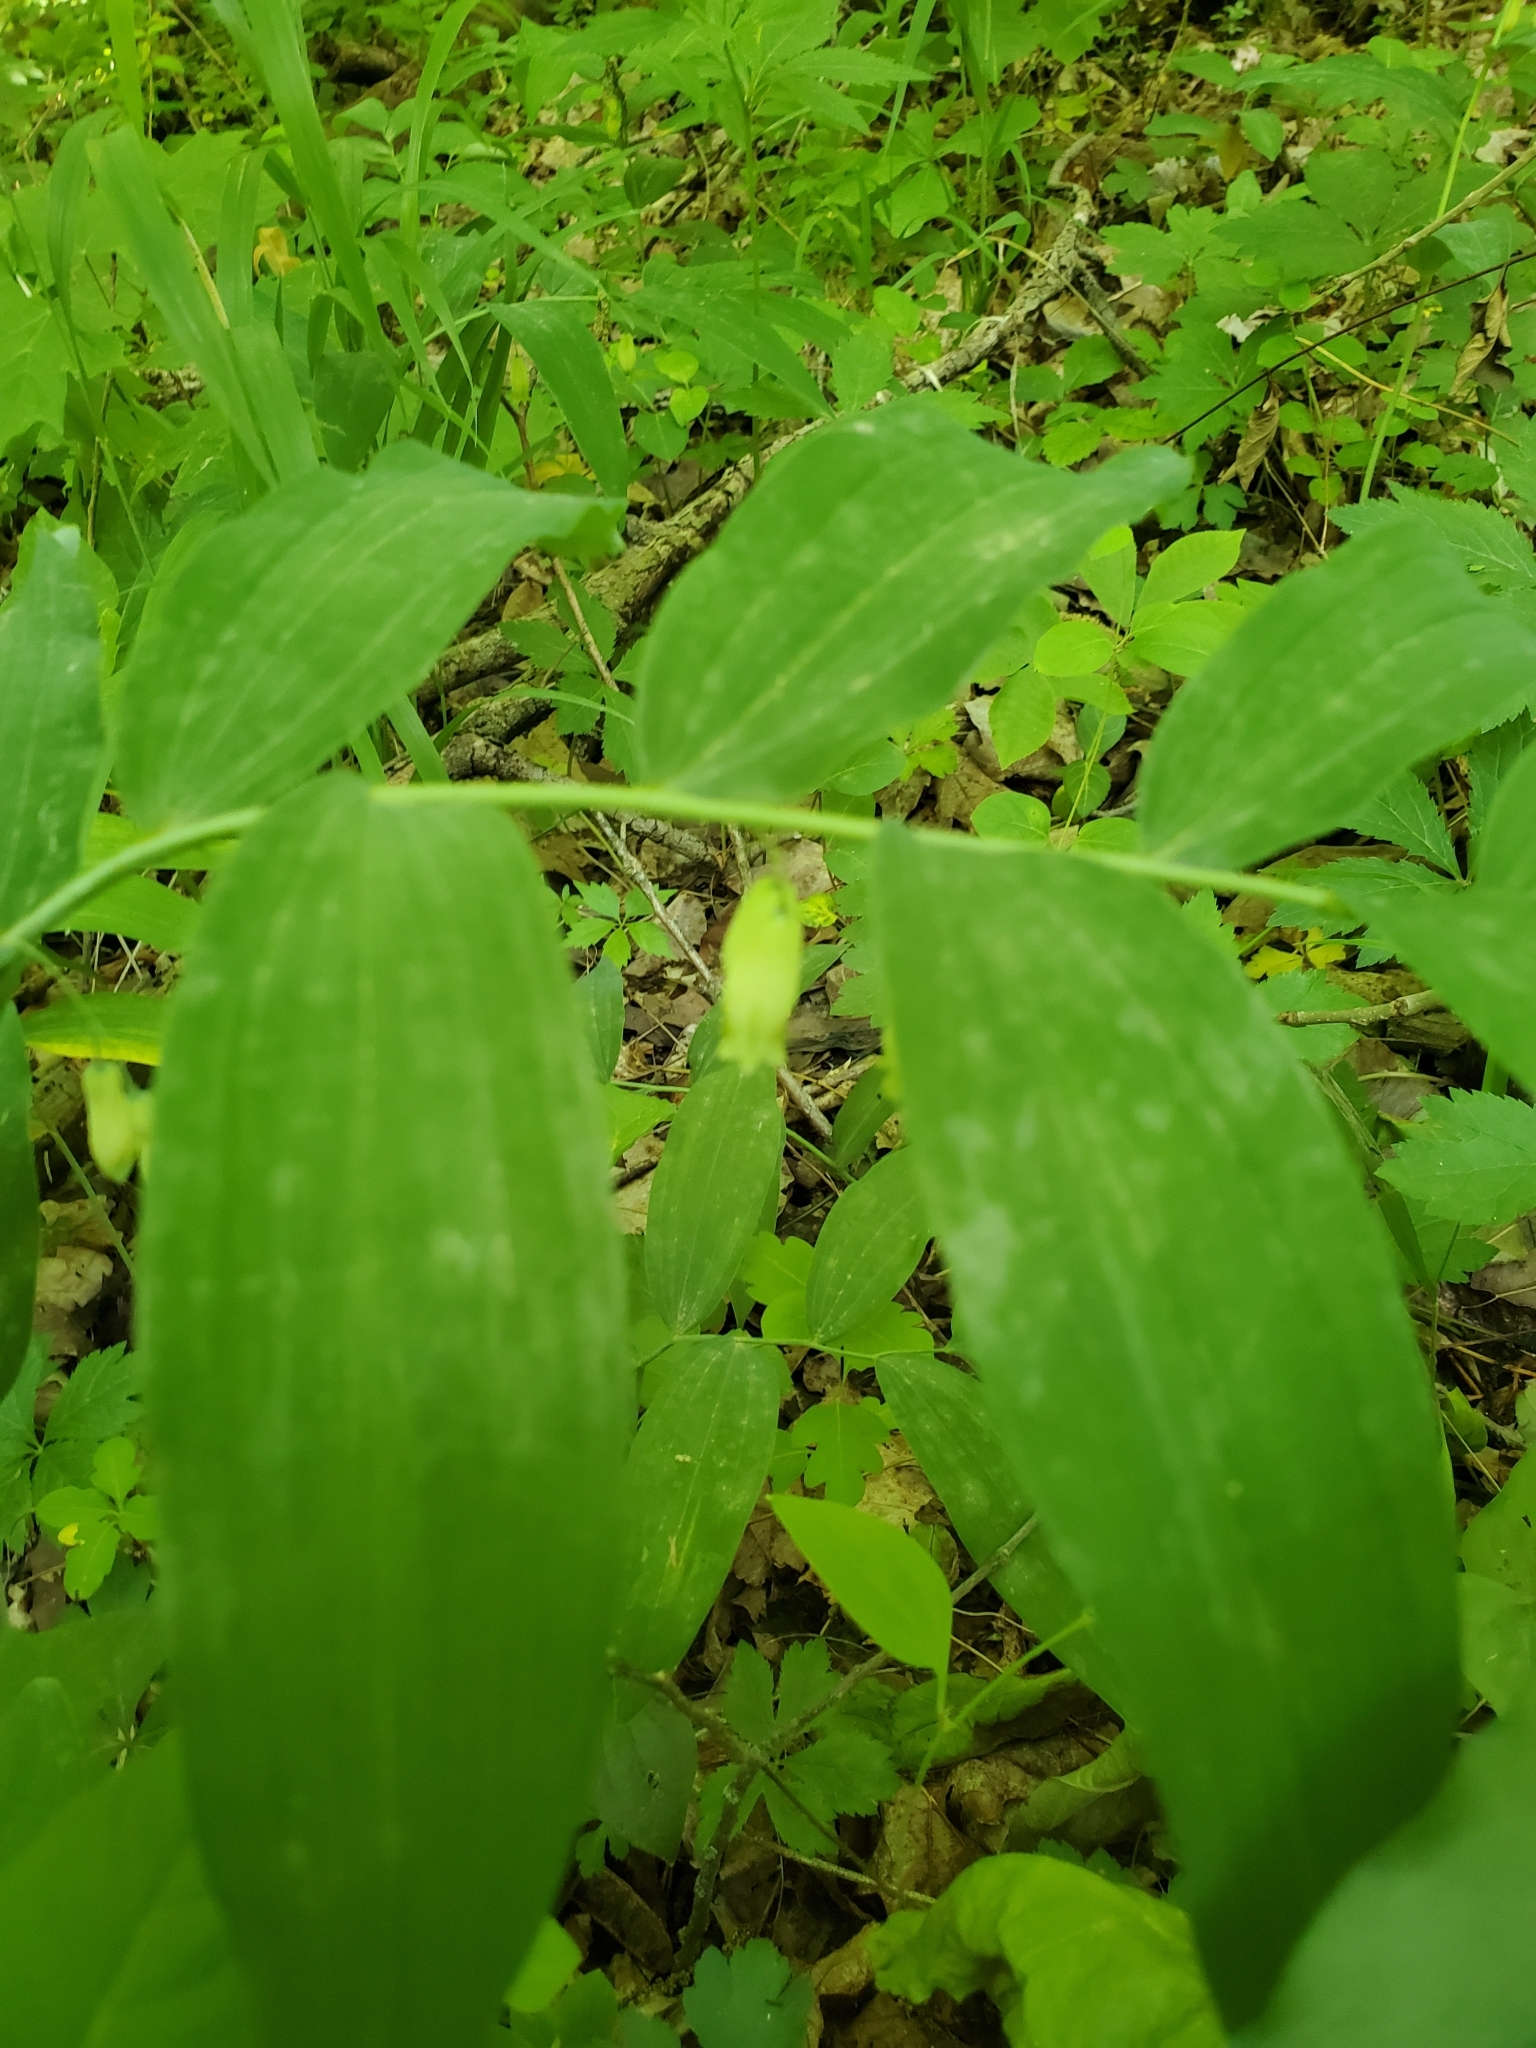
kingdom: Plantae
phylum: Tracheophyta
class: Liliopsida
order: Asparagales
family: Asparagaceae
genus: Polygonatum
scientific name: Polygonatum biflorum
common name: American solomon's-seal
